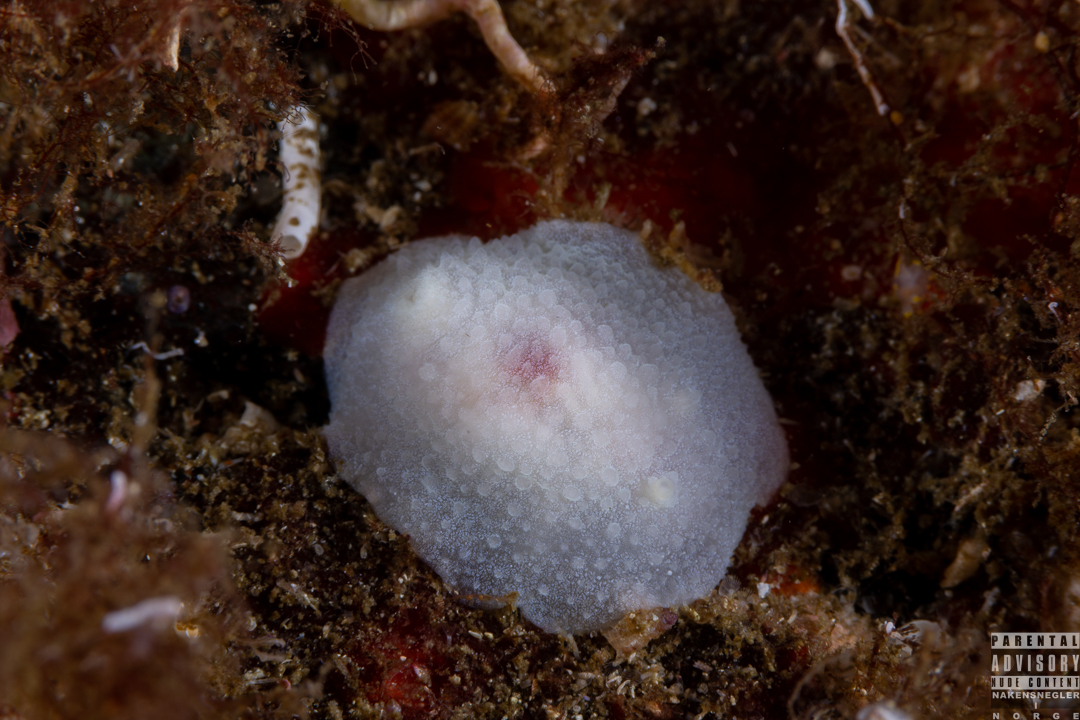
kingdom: Animalia
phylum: Mollusca
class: Gastropoda
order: Nudibranchia
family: Cadlinidae
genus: Aldisa
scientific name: Aldisa zetlandica
